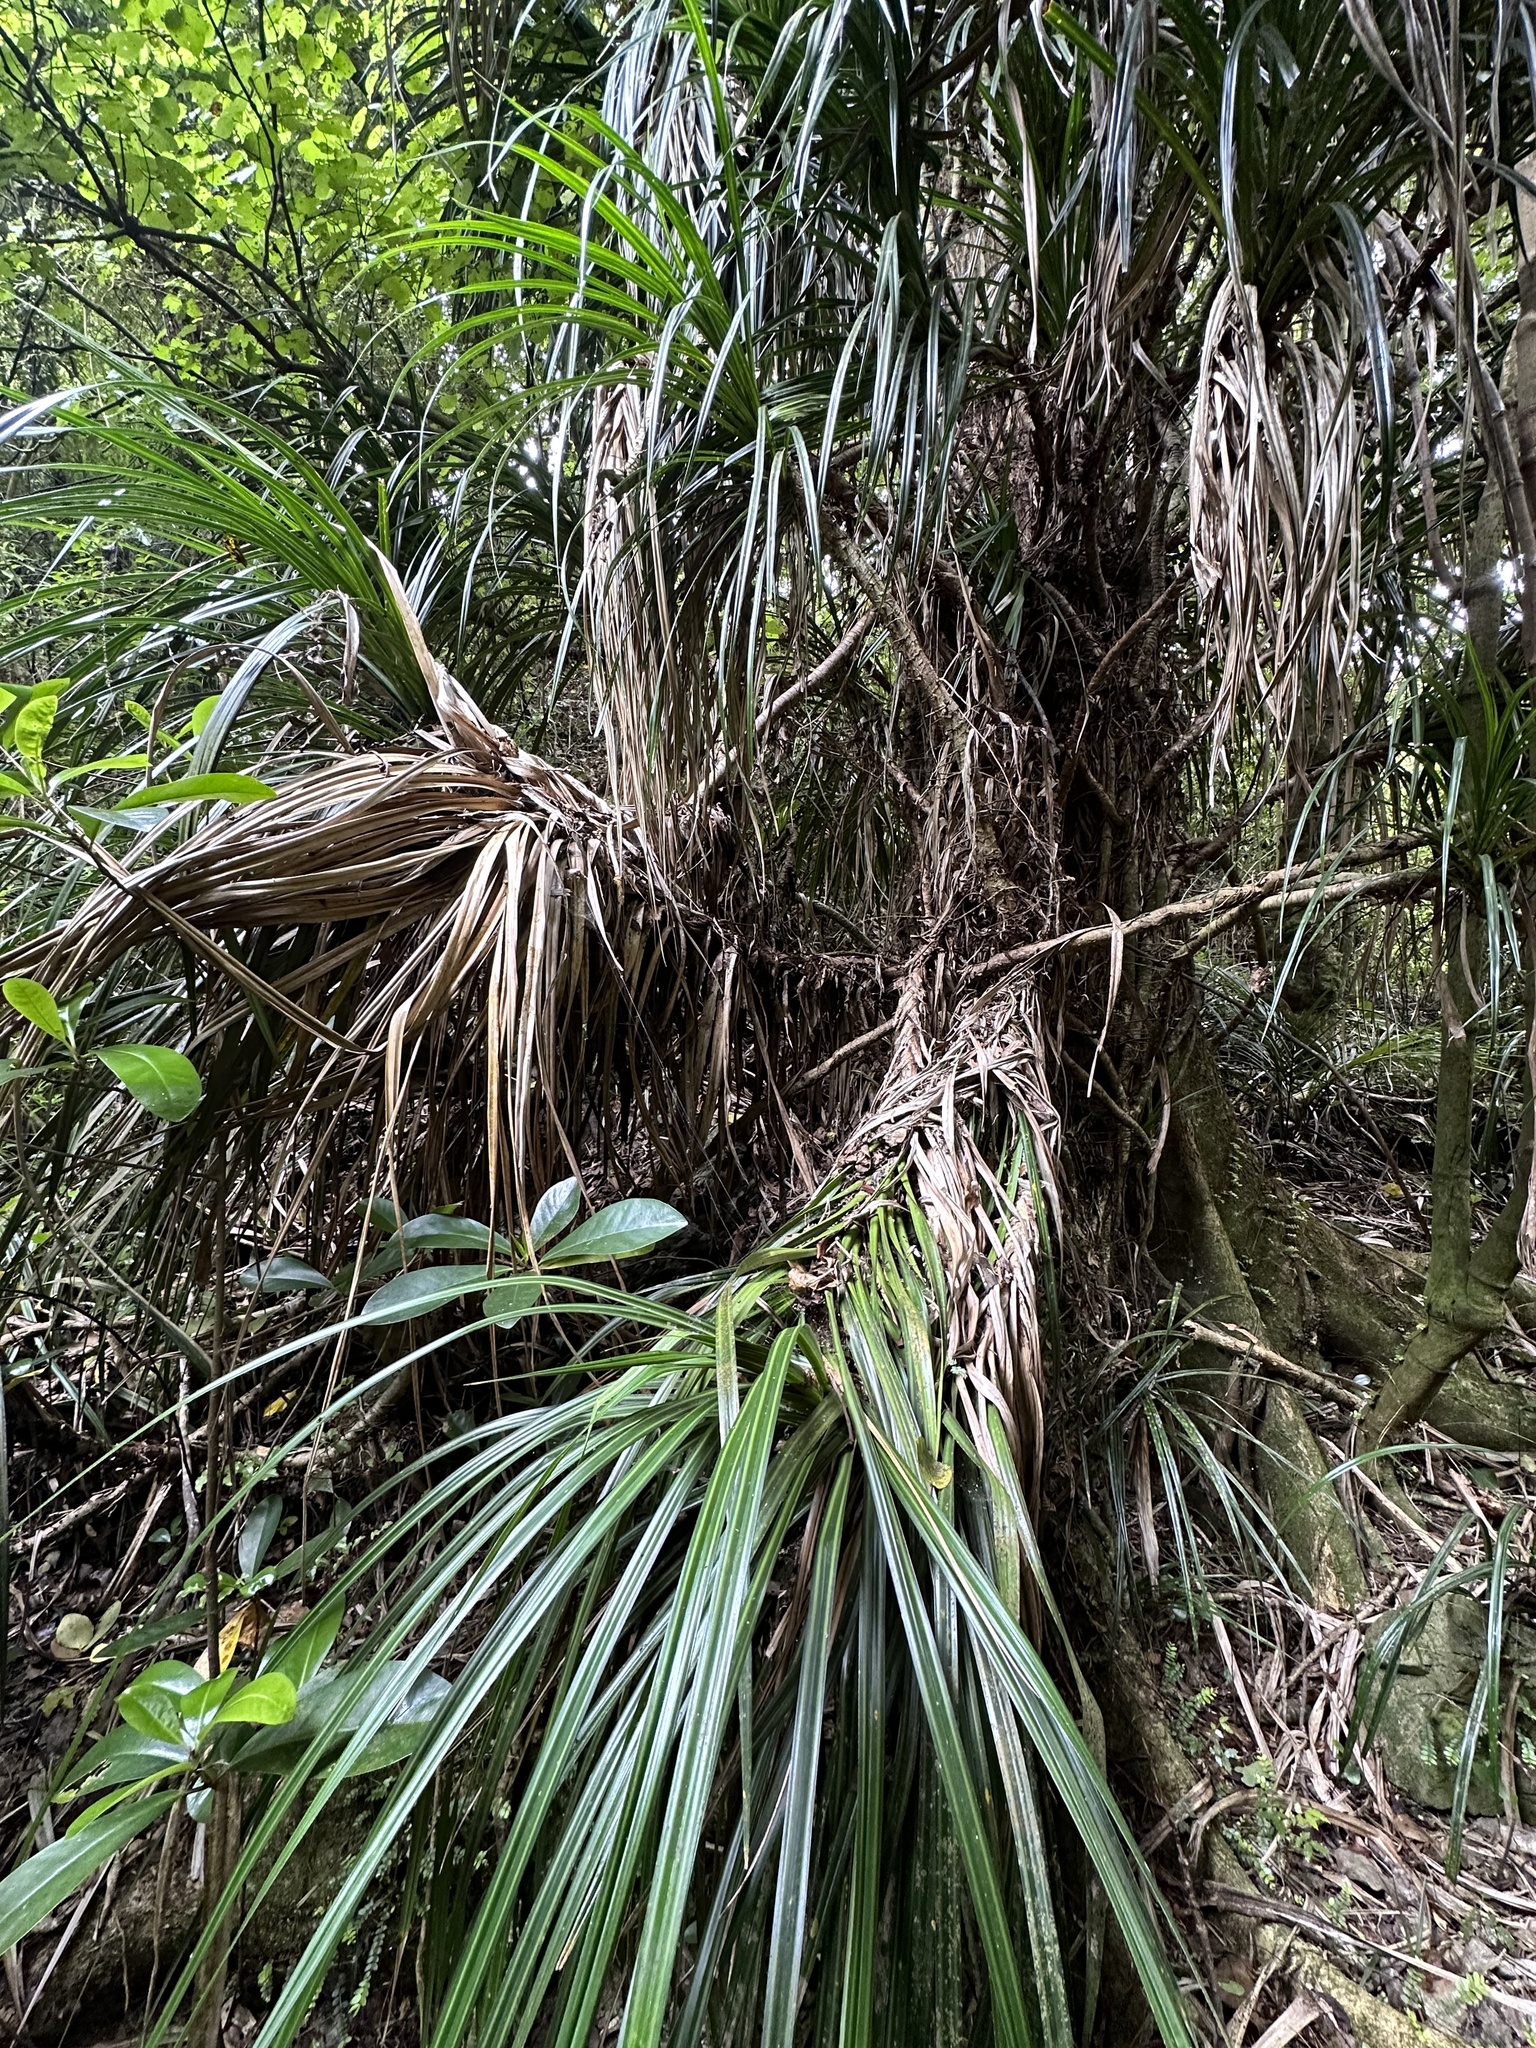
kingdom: Plantae
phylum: Tracheophyta
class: Liliopsida
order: Pandanales
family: Pandanaceae
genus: Freycinetia
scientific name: Freycinetia banksii
